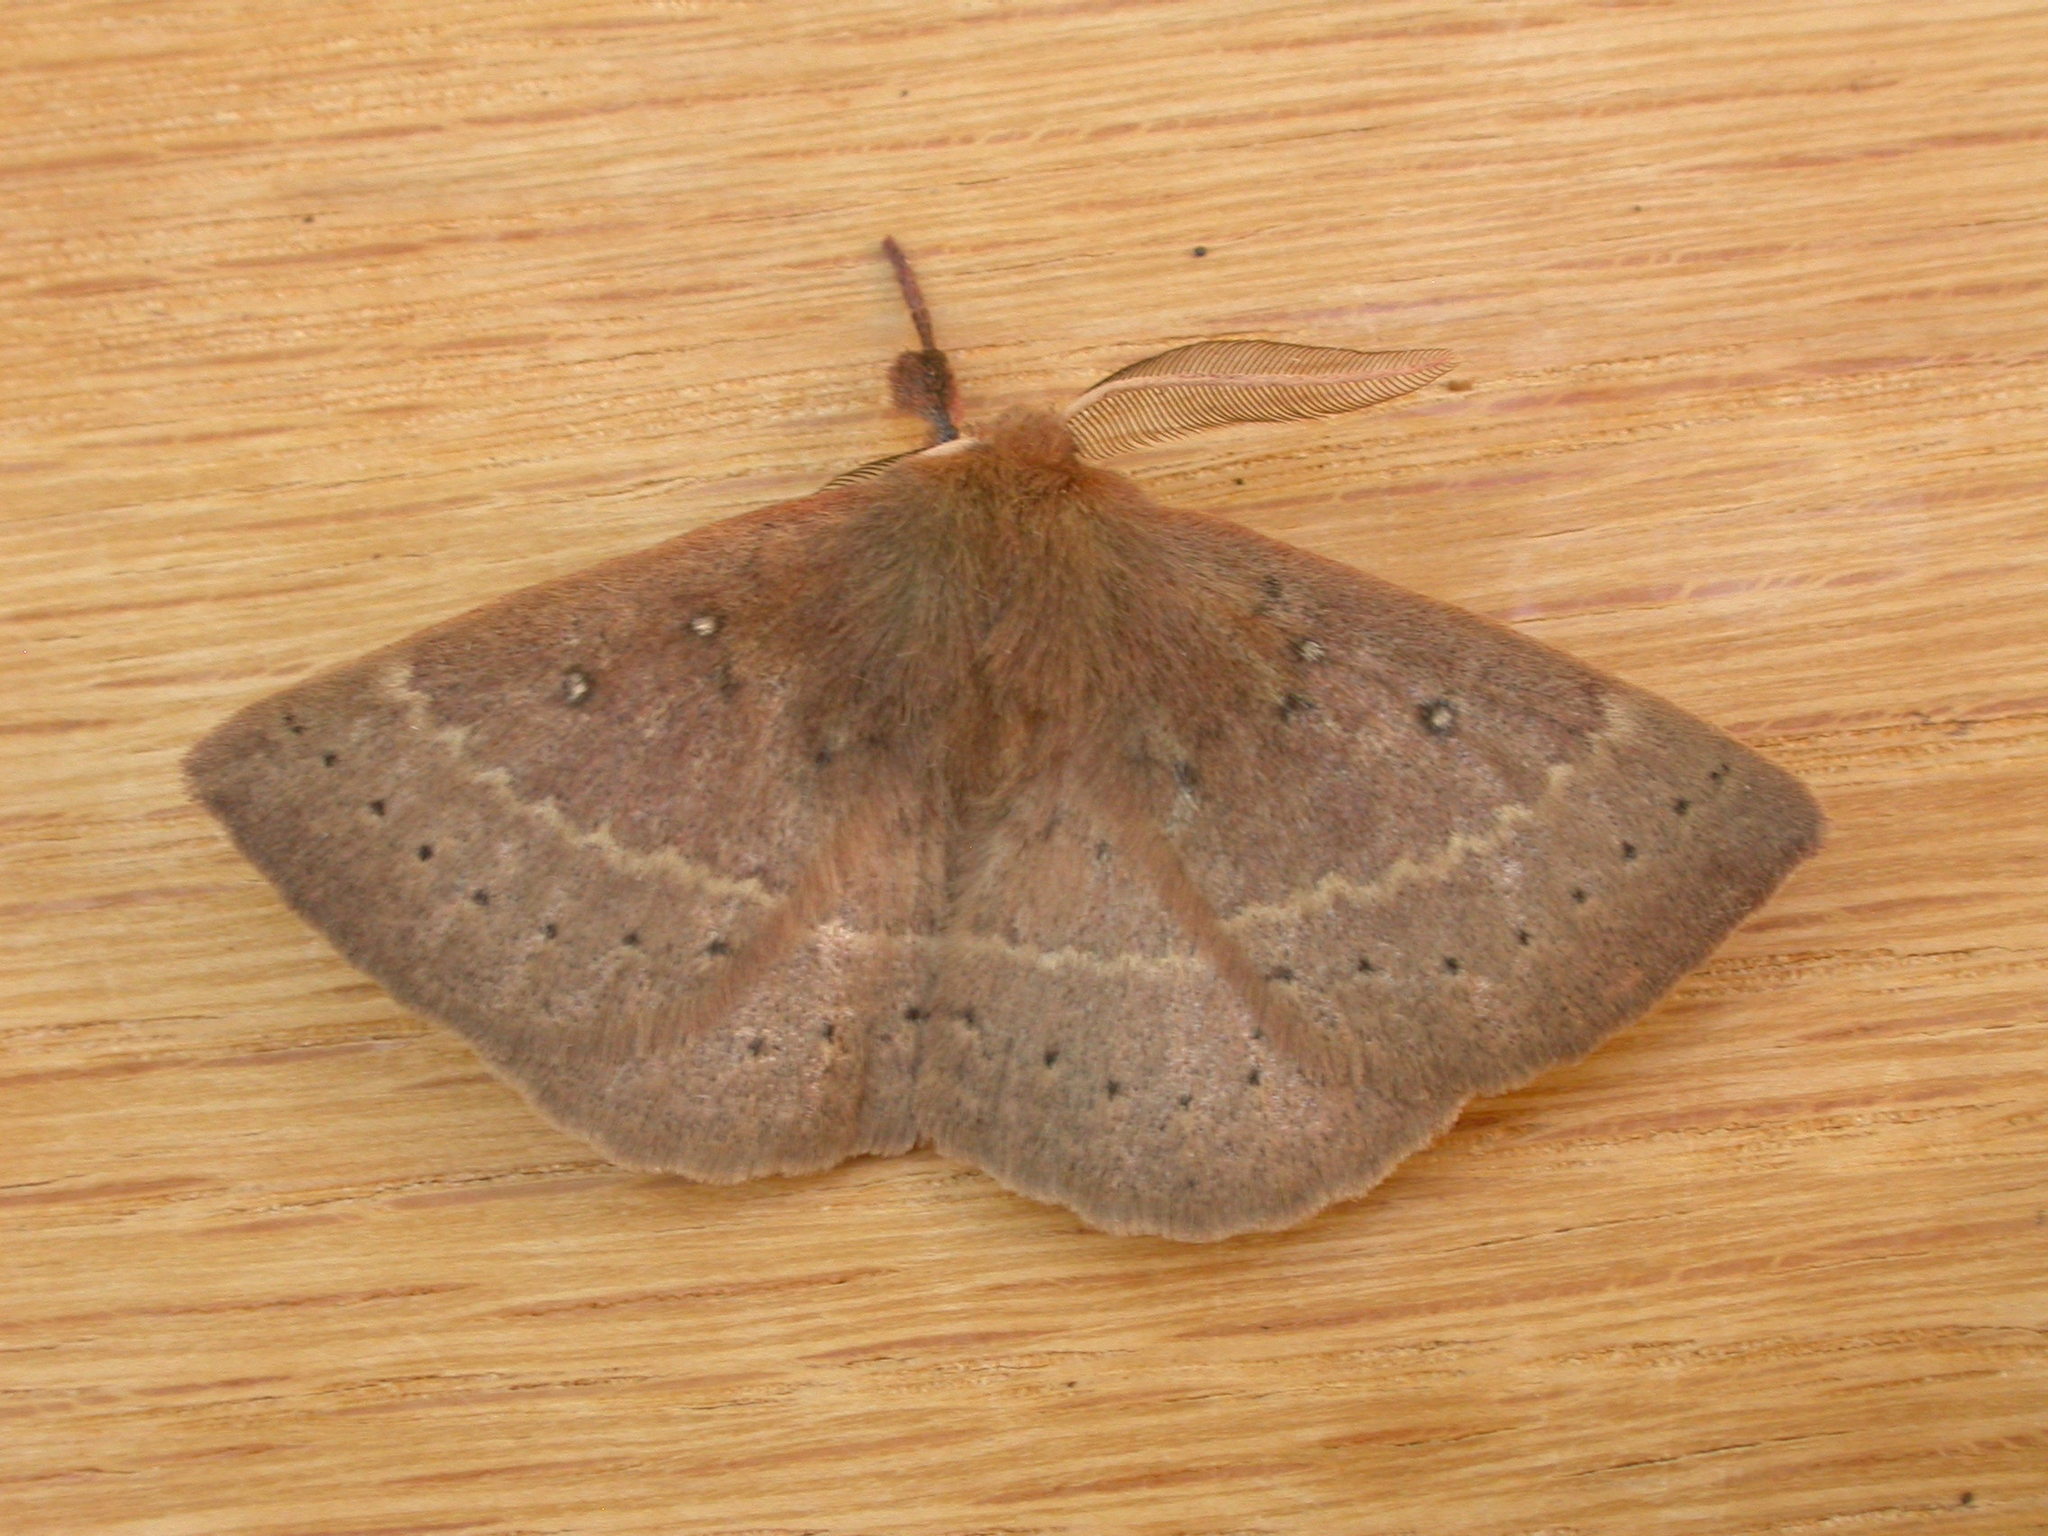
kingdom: Animalia
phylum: Arthropoda
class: Insecta
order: Lepidoptera
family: Anthelidae
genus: Anthela
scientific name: Anthela repleta
